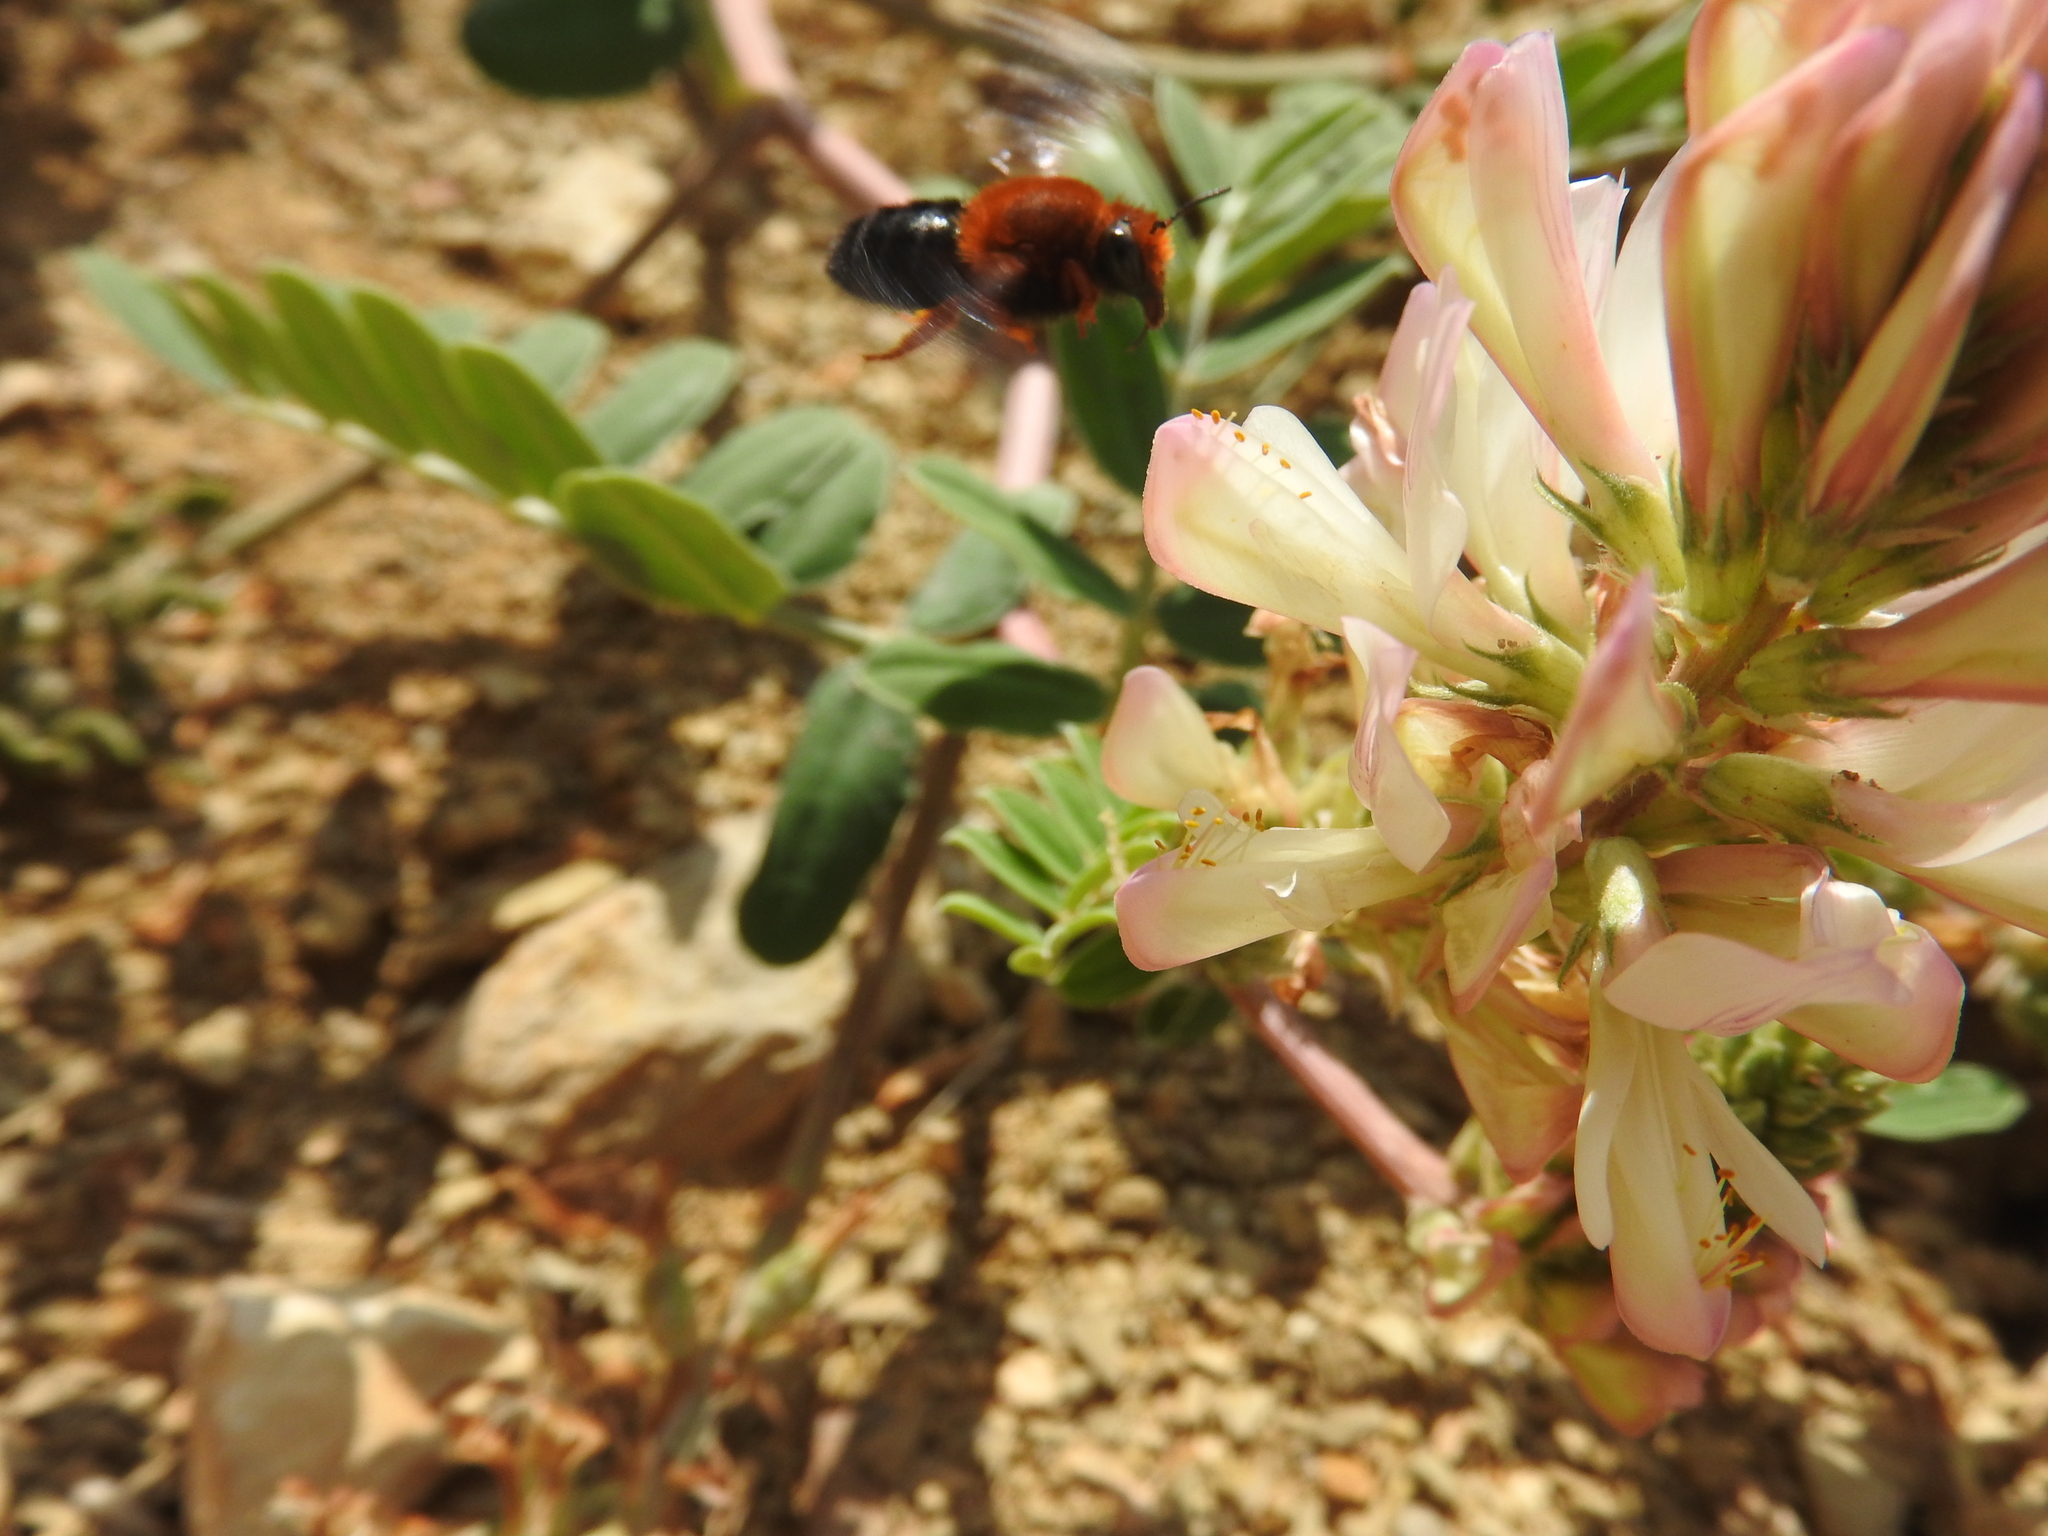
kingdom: Animalia
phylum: Arthropoda
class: Insecta
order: Hymenoptera
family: Megachilidae
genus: Megachile
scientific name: Megachile sicula
